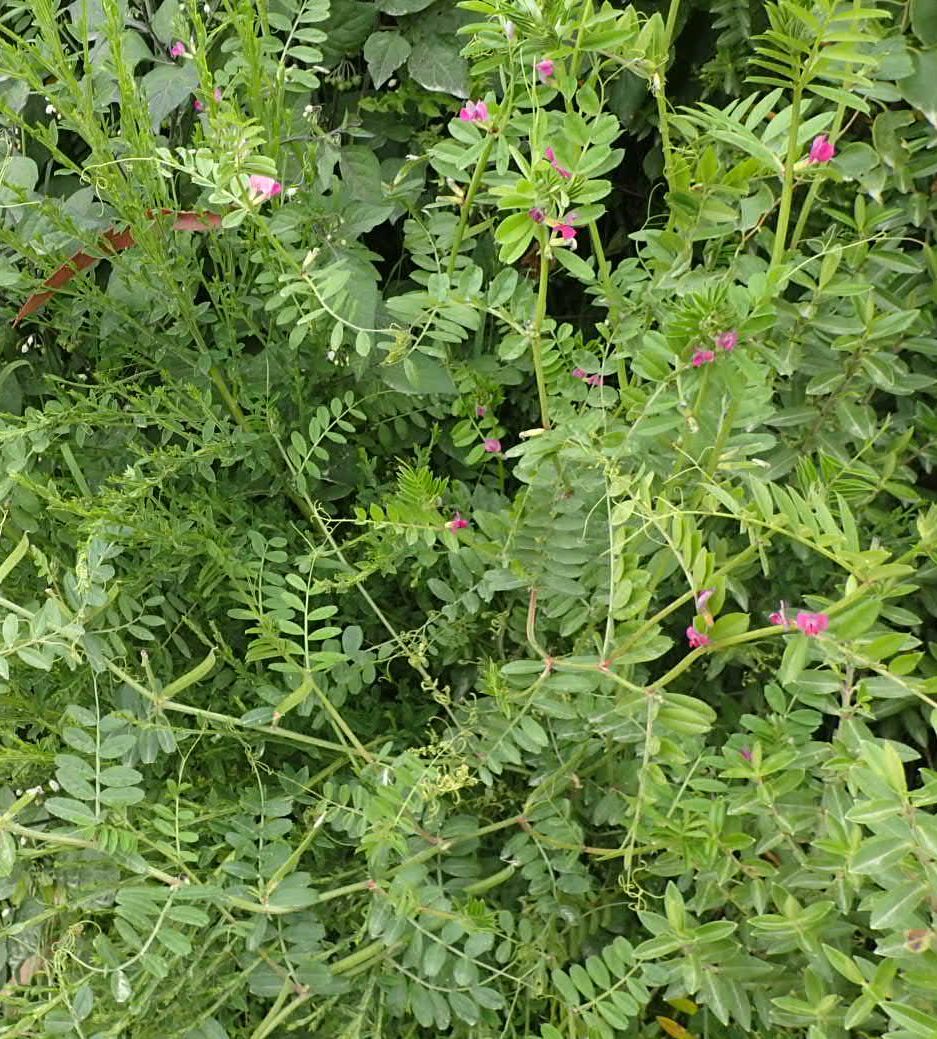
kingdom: Plantae
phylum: Tracheophyta
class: Magnoliopsida
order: Fabales
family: Fabaceae
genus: Vicia
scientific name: Vicia sativa
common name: Garden vetch
